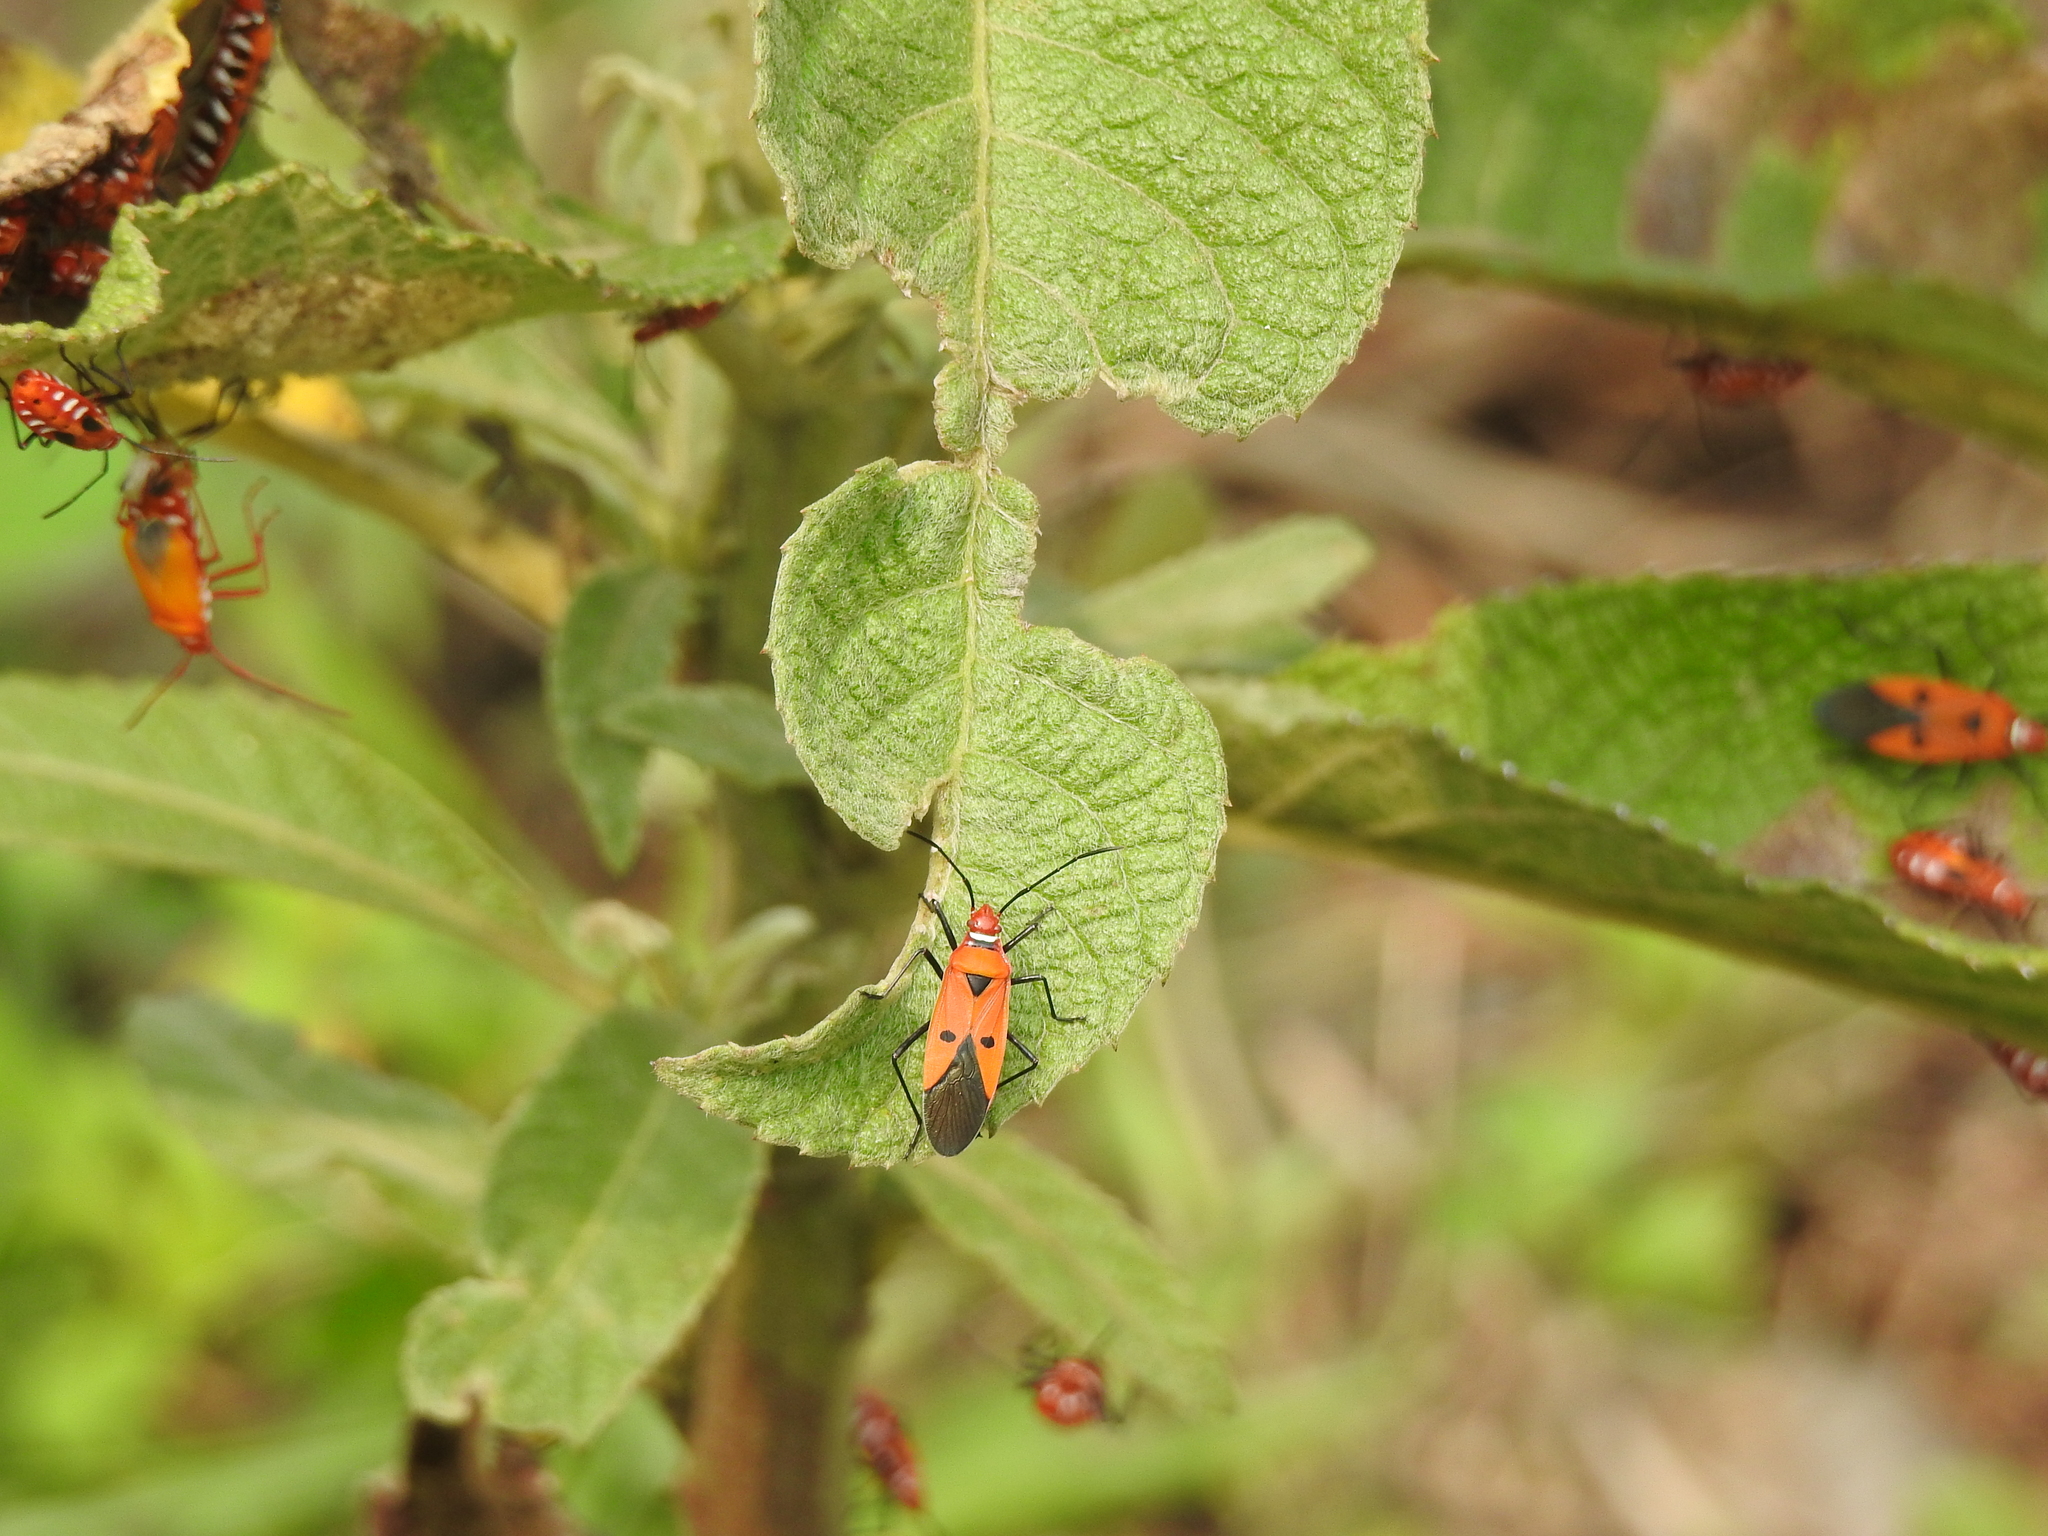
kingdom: Animalia
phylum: Arthropoda
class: Insecta
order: Hemiptera
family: Pyrrhocoridae
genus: Dysdercus
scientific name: Dysdercus cingulatus
